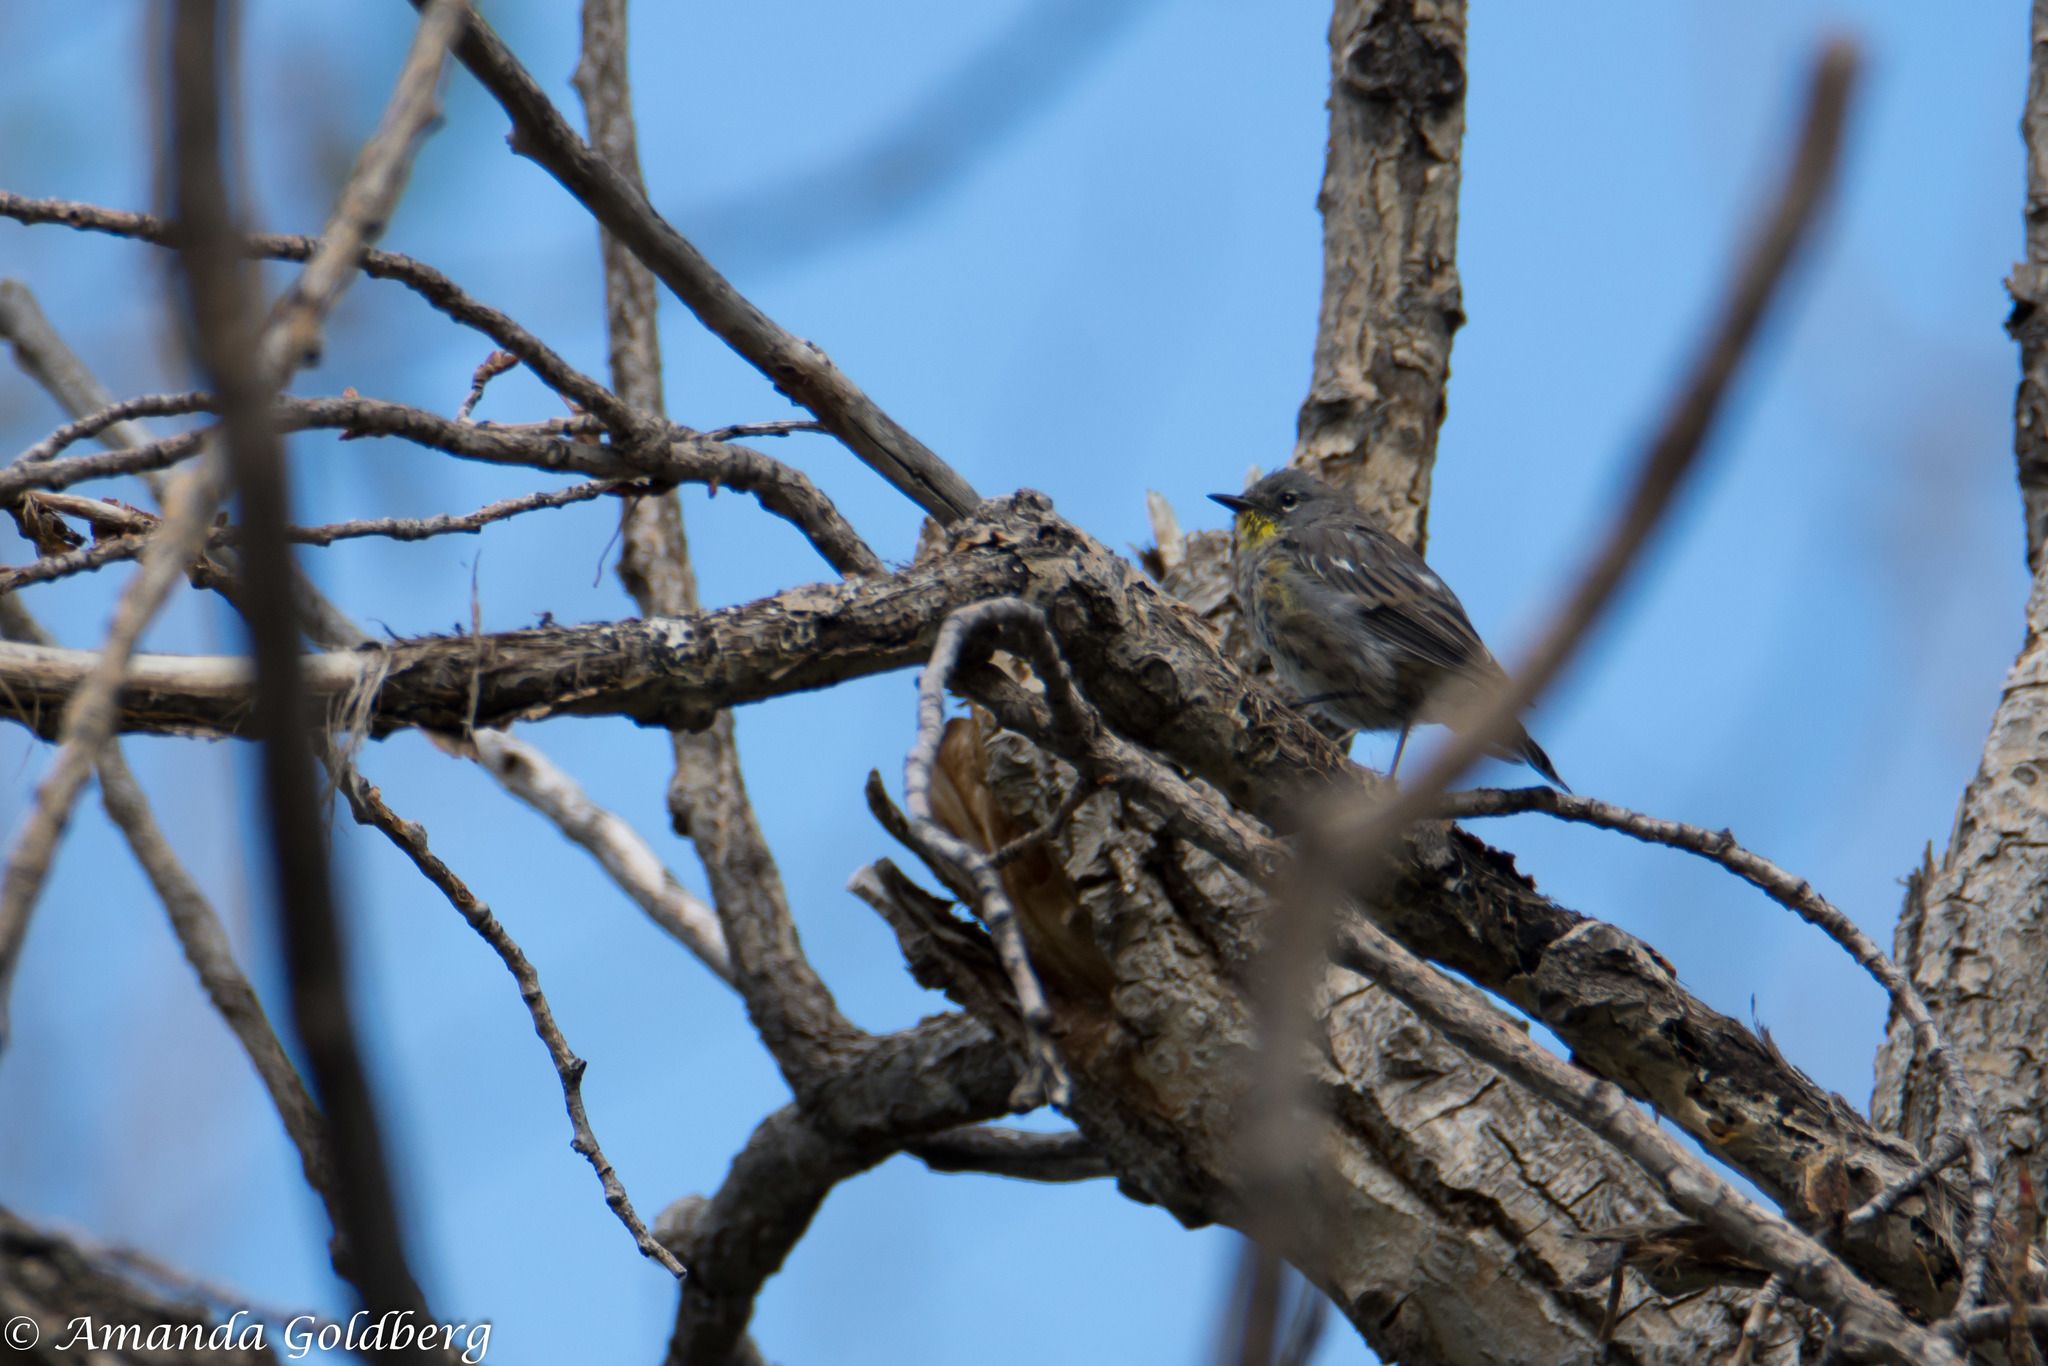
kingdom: Animalia
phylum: Chordata
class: Aves
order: Passeriformes
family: Parulidae
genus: Setophaga
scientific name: Setophaga coronata
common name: Myrtle warbler
